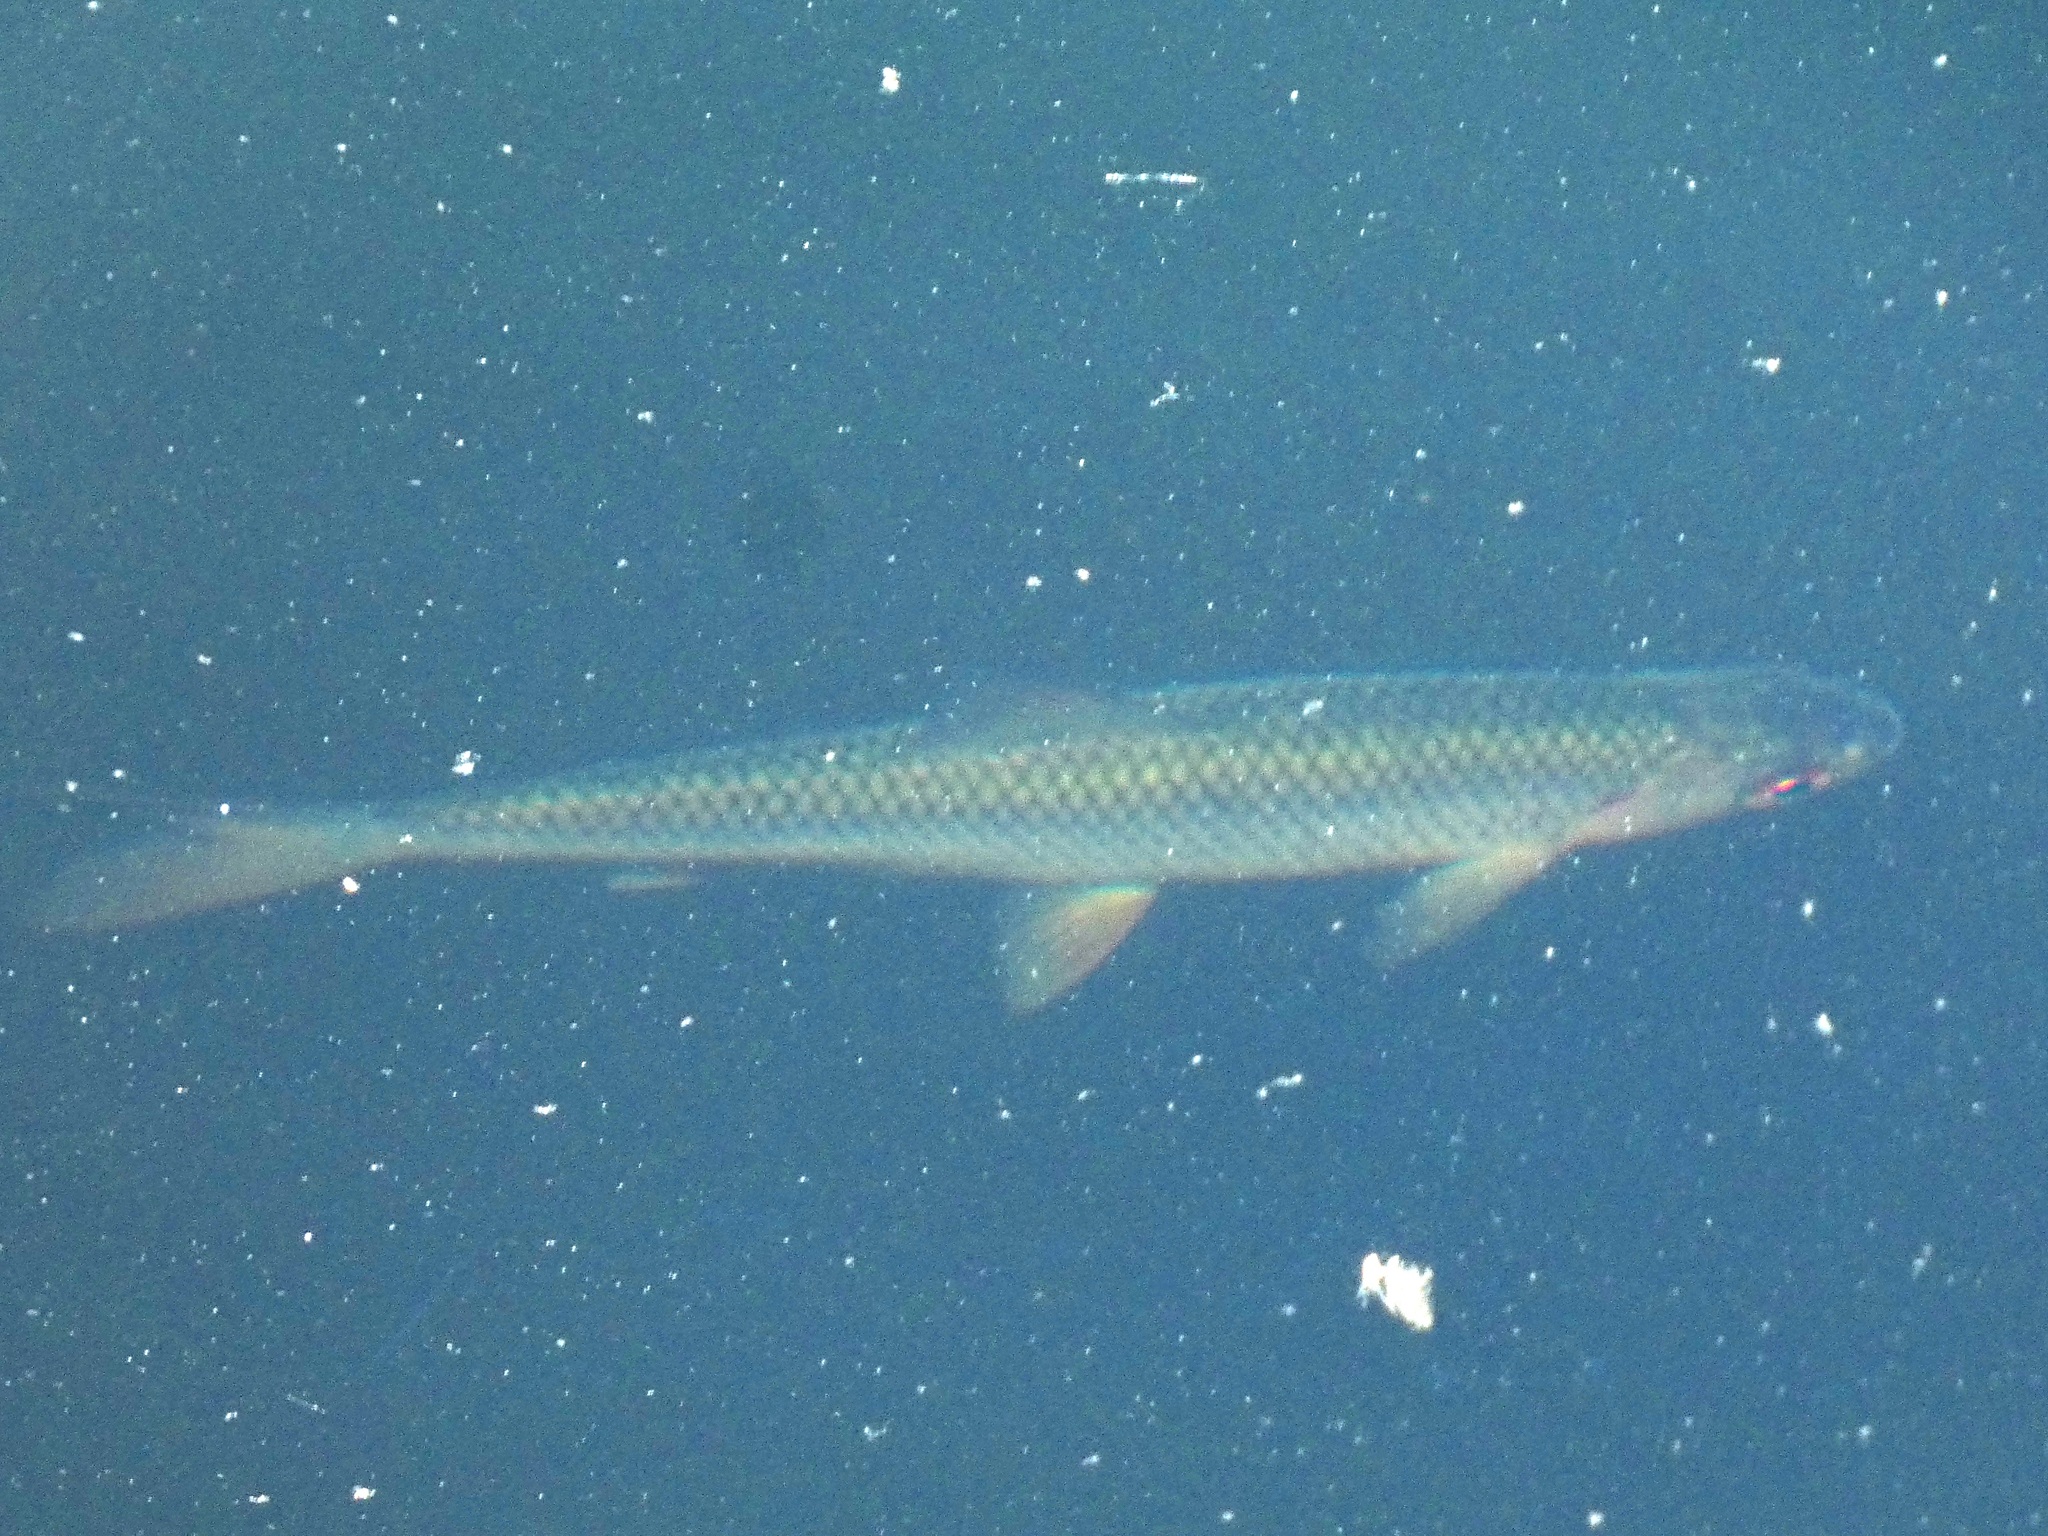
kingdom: Animalia
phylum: Chordata
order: Cypriniformes
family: Cyprinidae
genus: Rutilus
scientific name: Rutilus rutilus
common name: Roach
